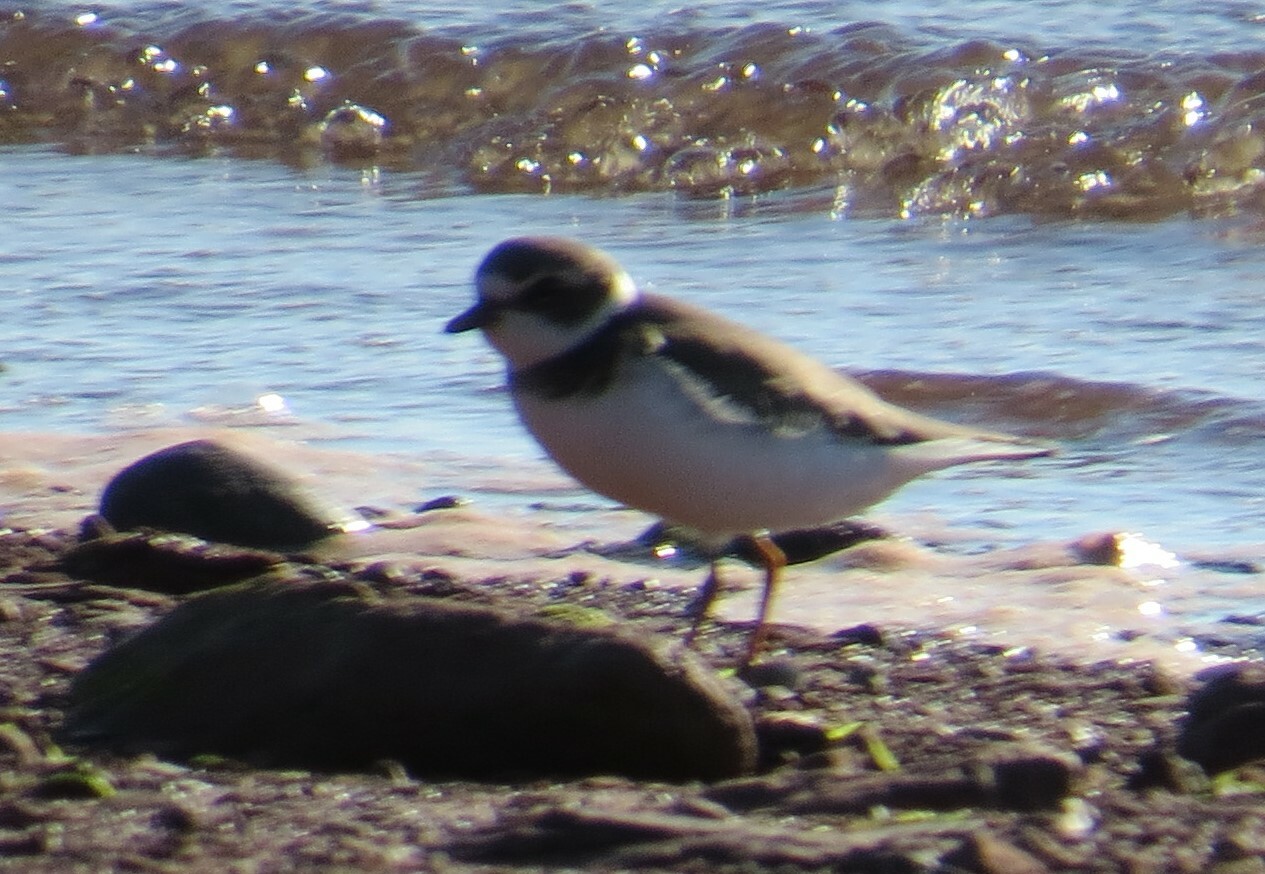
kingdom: Animalia
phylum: Chordata
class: Aves
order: Charadriiformes
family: Charadriidae
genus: Charadrius
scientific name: Charadrius semipalmatus
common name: Semipalmated plover
